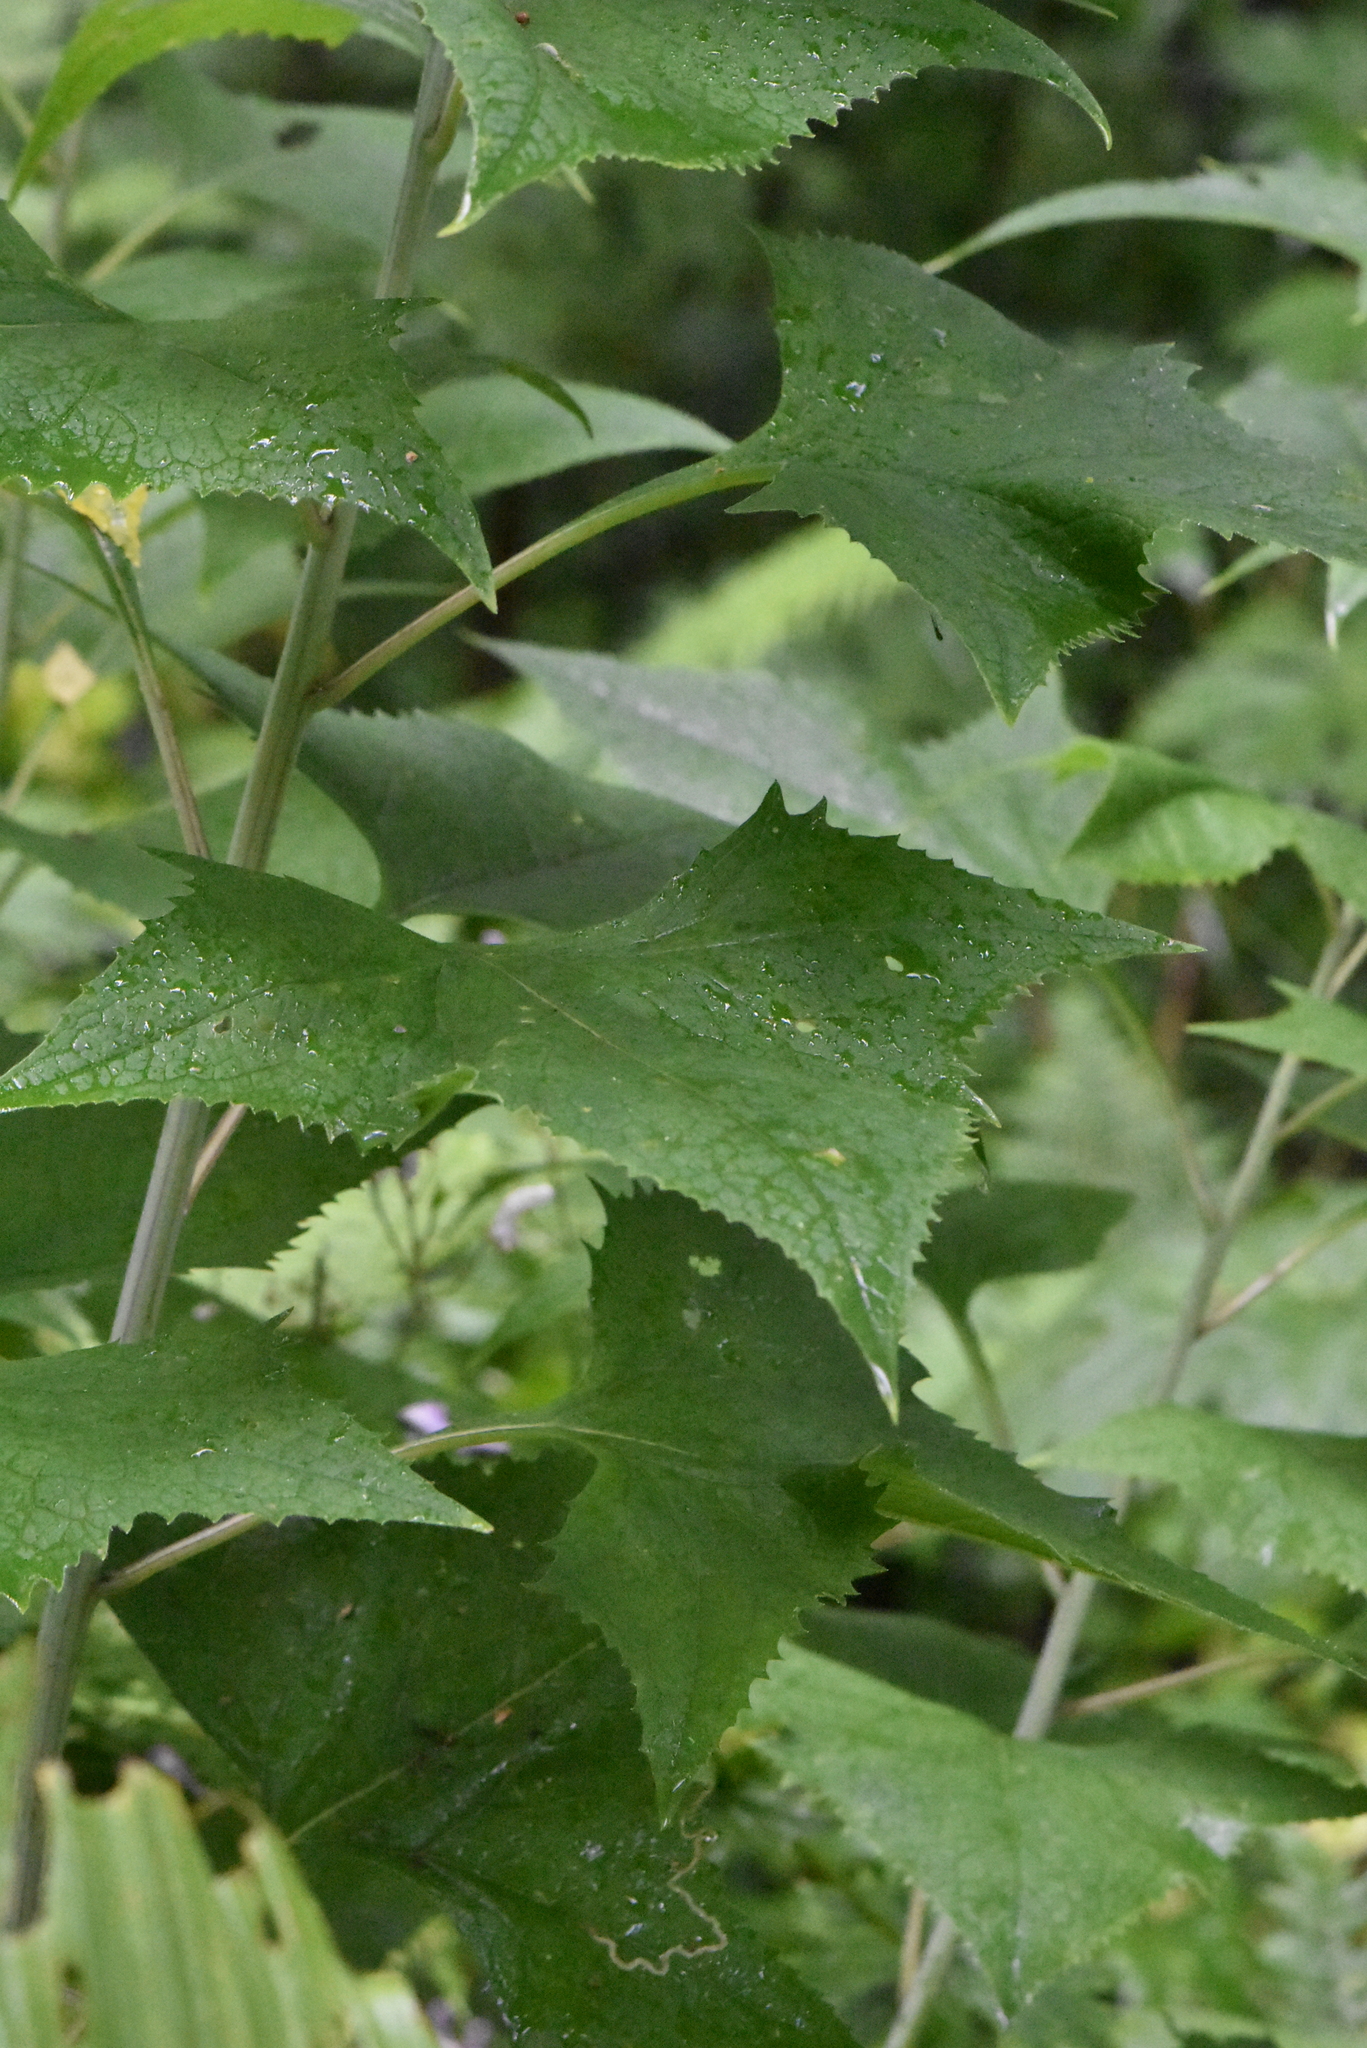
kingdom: Plantae
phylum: Tracheophyta
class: Magnoliopsida
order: Asterales
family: Asteraceae
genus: Parasenecio
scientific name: Parasenecio hastatus
